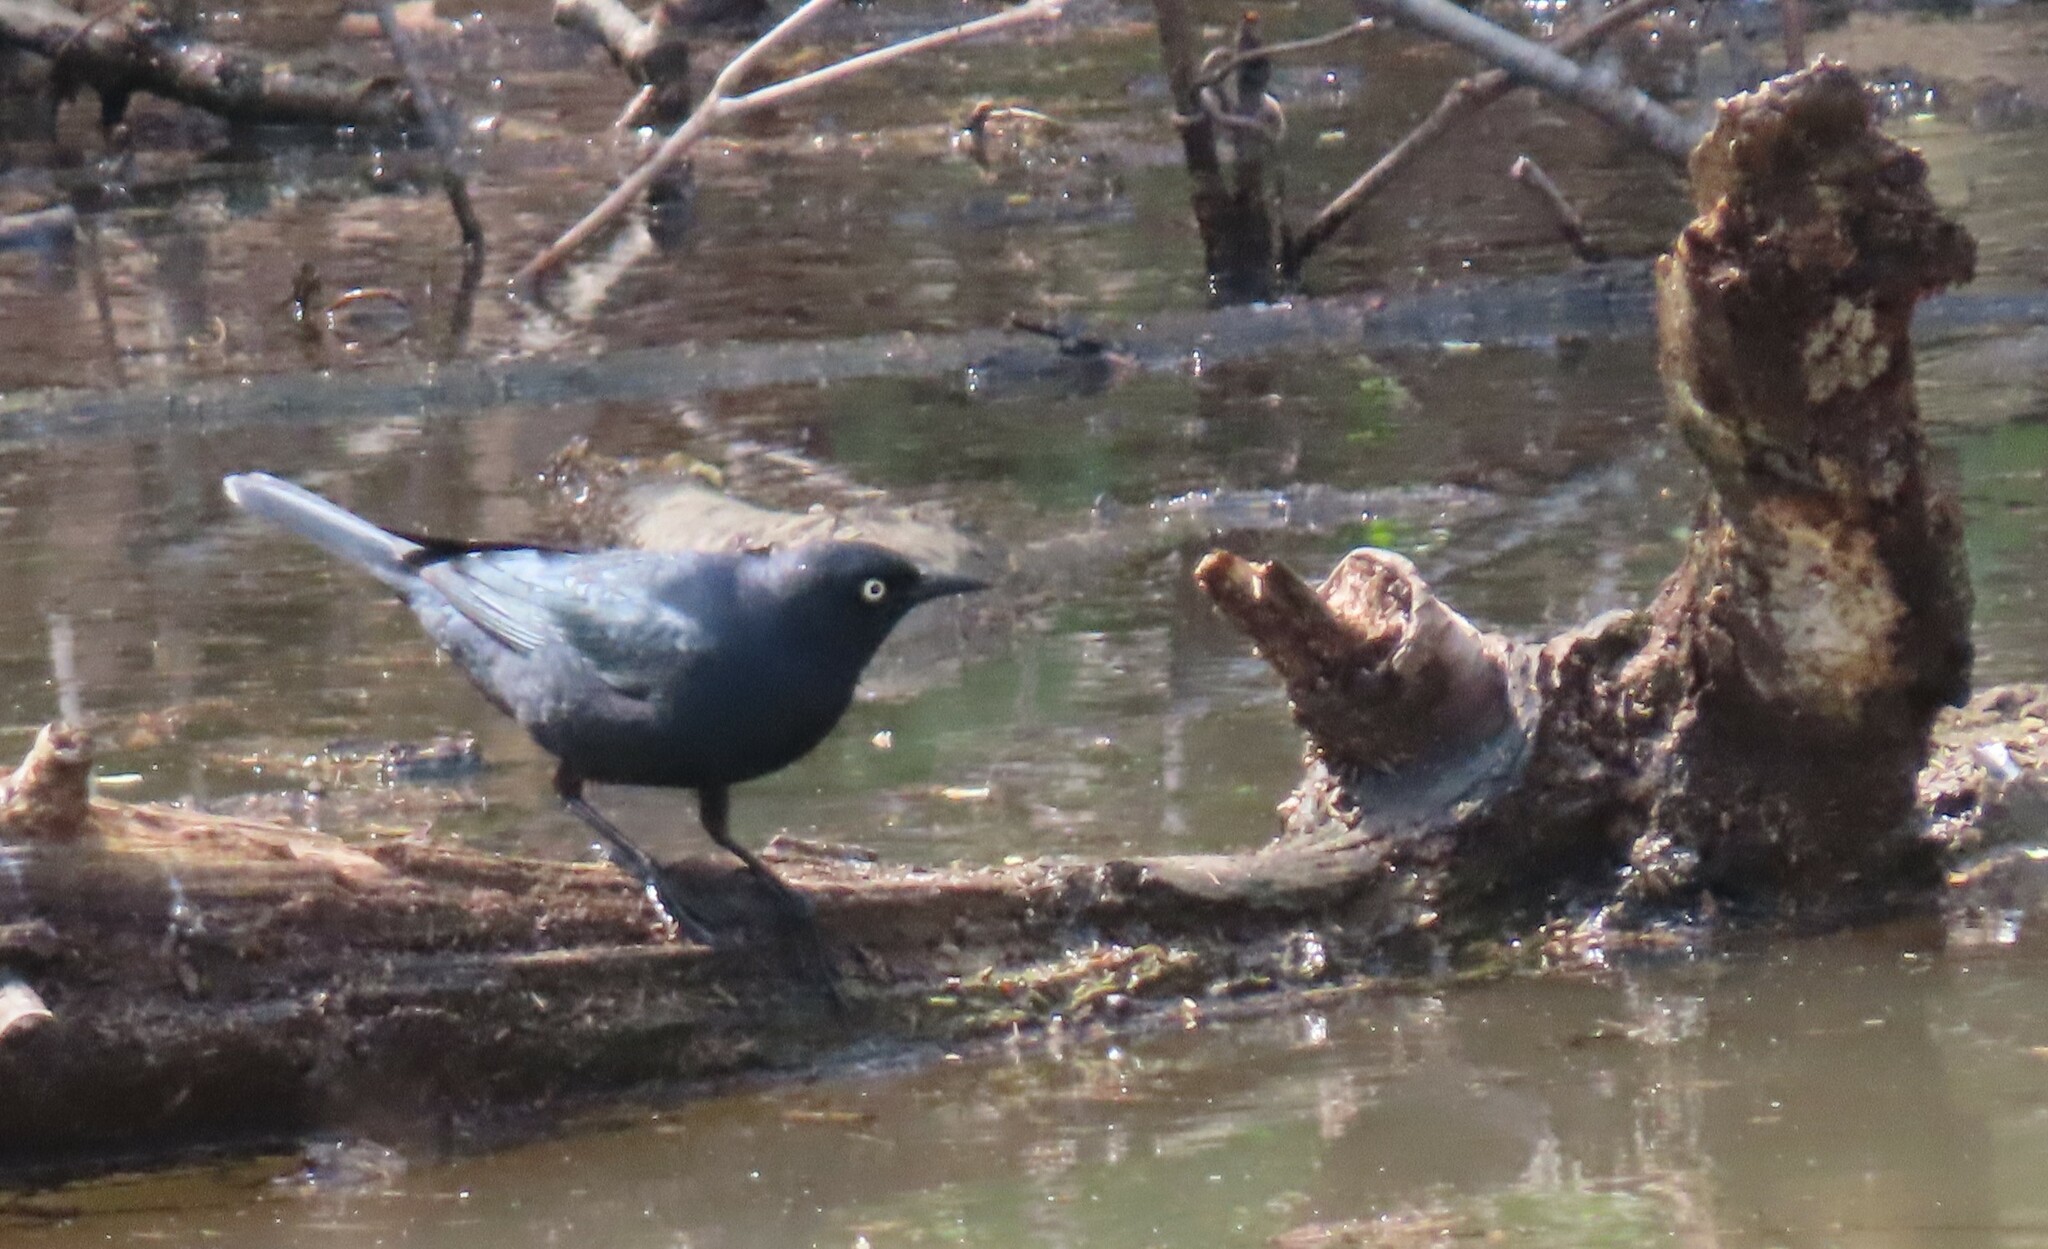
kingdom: Animalia
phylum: Chordata
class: Aves
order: Passeriformes
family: Icteridae
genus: Euphagus
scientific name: Euphagus carolinus
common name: Rusty blackbird
